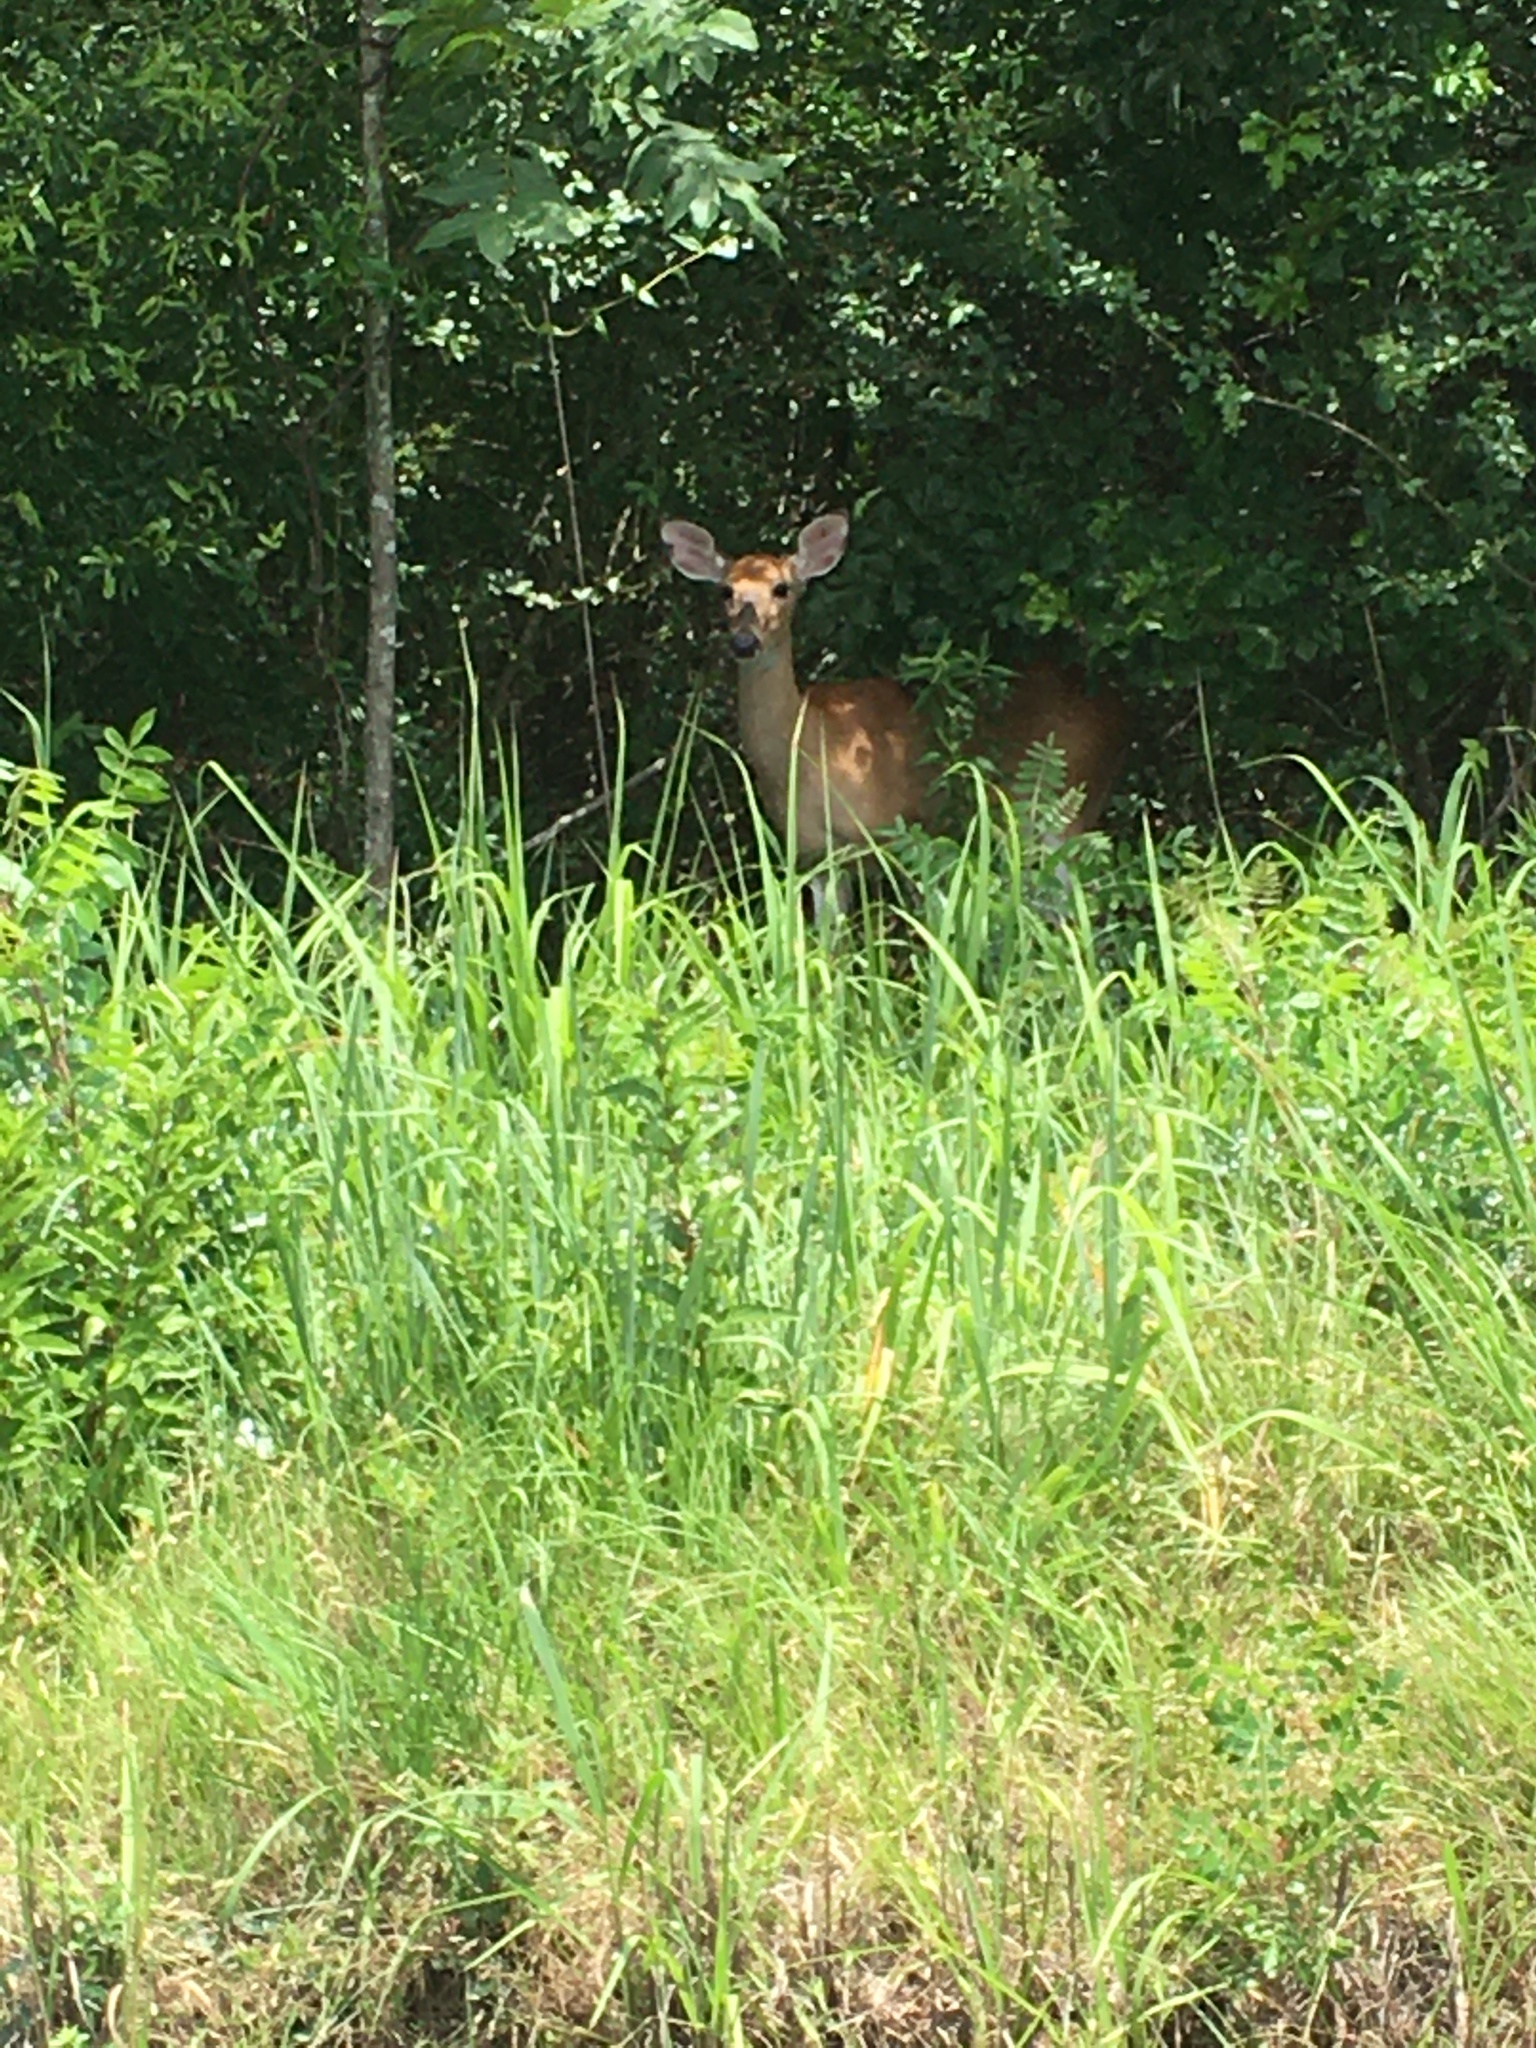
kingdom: Animalia
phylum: Chordata
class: Mammalia
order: Artiodactyla
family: Cervidae
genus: Odocoileus
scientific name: Odocoileus virginianus
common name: White-tailed deer
